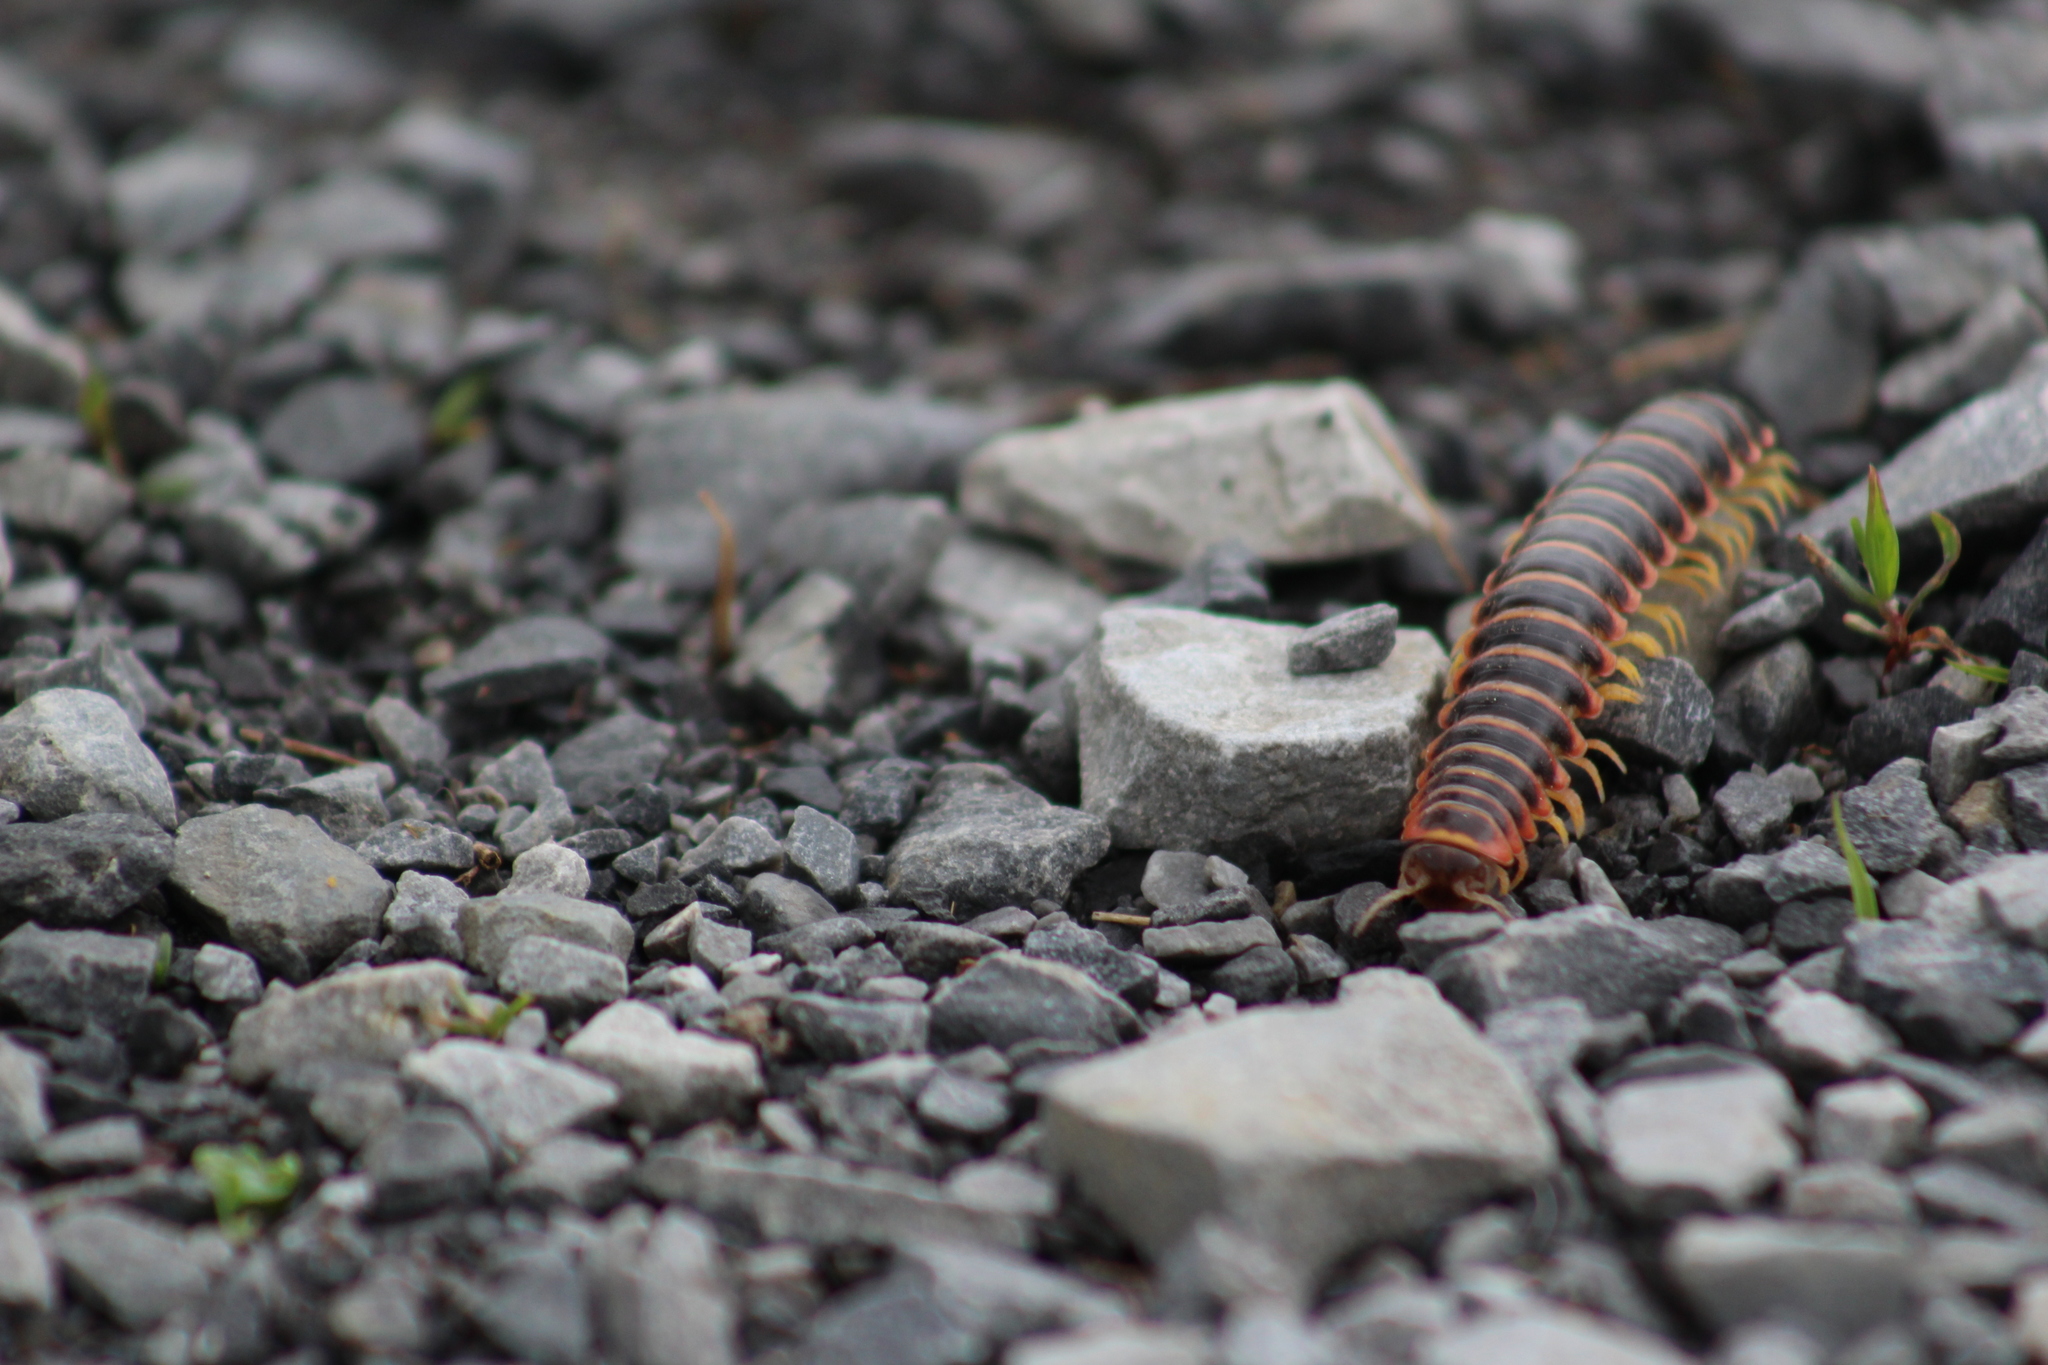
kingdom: Animalia
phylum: Arthropoda
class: Diplopoda
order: Polydesmida
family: Xystodesmidae
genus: Apheloria
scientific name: Apheloria virginiensis
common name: Black-and-gold flat millipede
